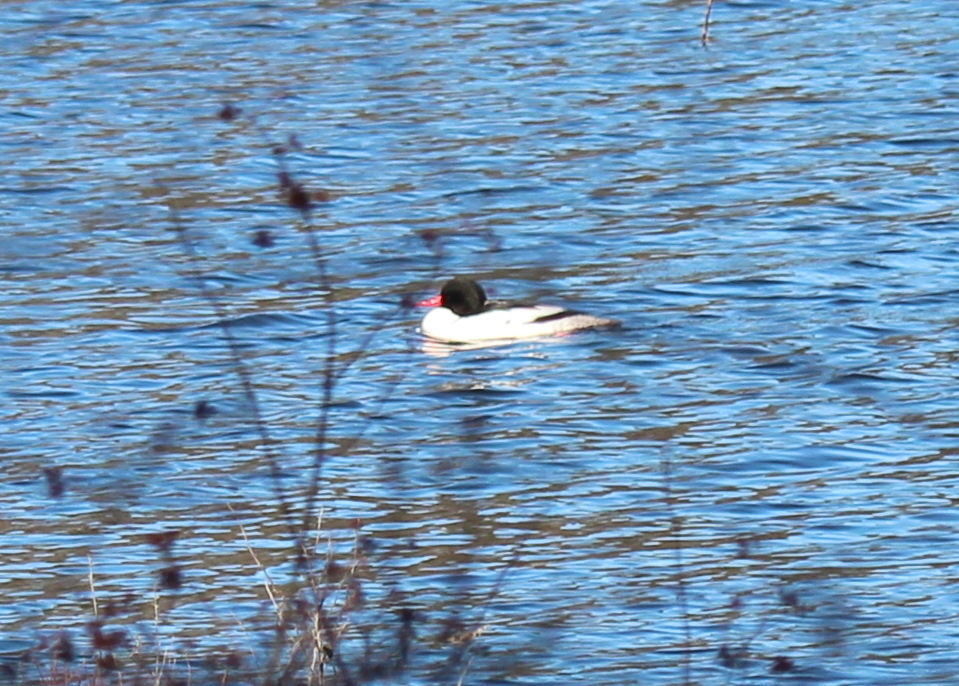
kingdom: Animalia
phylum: Chordata
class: Aves
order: Anseriformes
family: Anatidae
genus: Mergus
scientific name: Mergus merganser
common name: Common merganser
